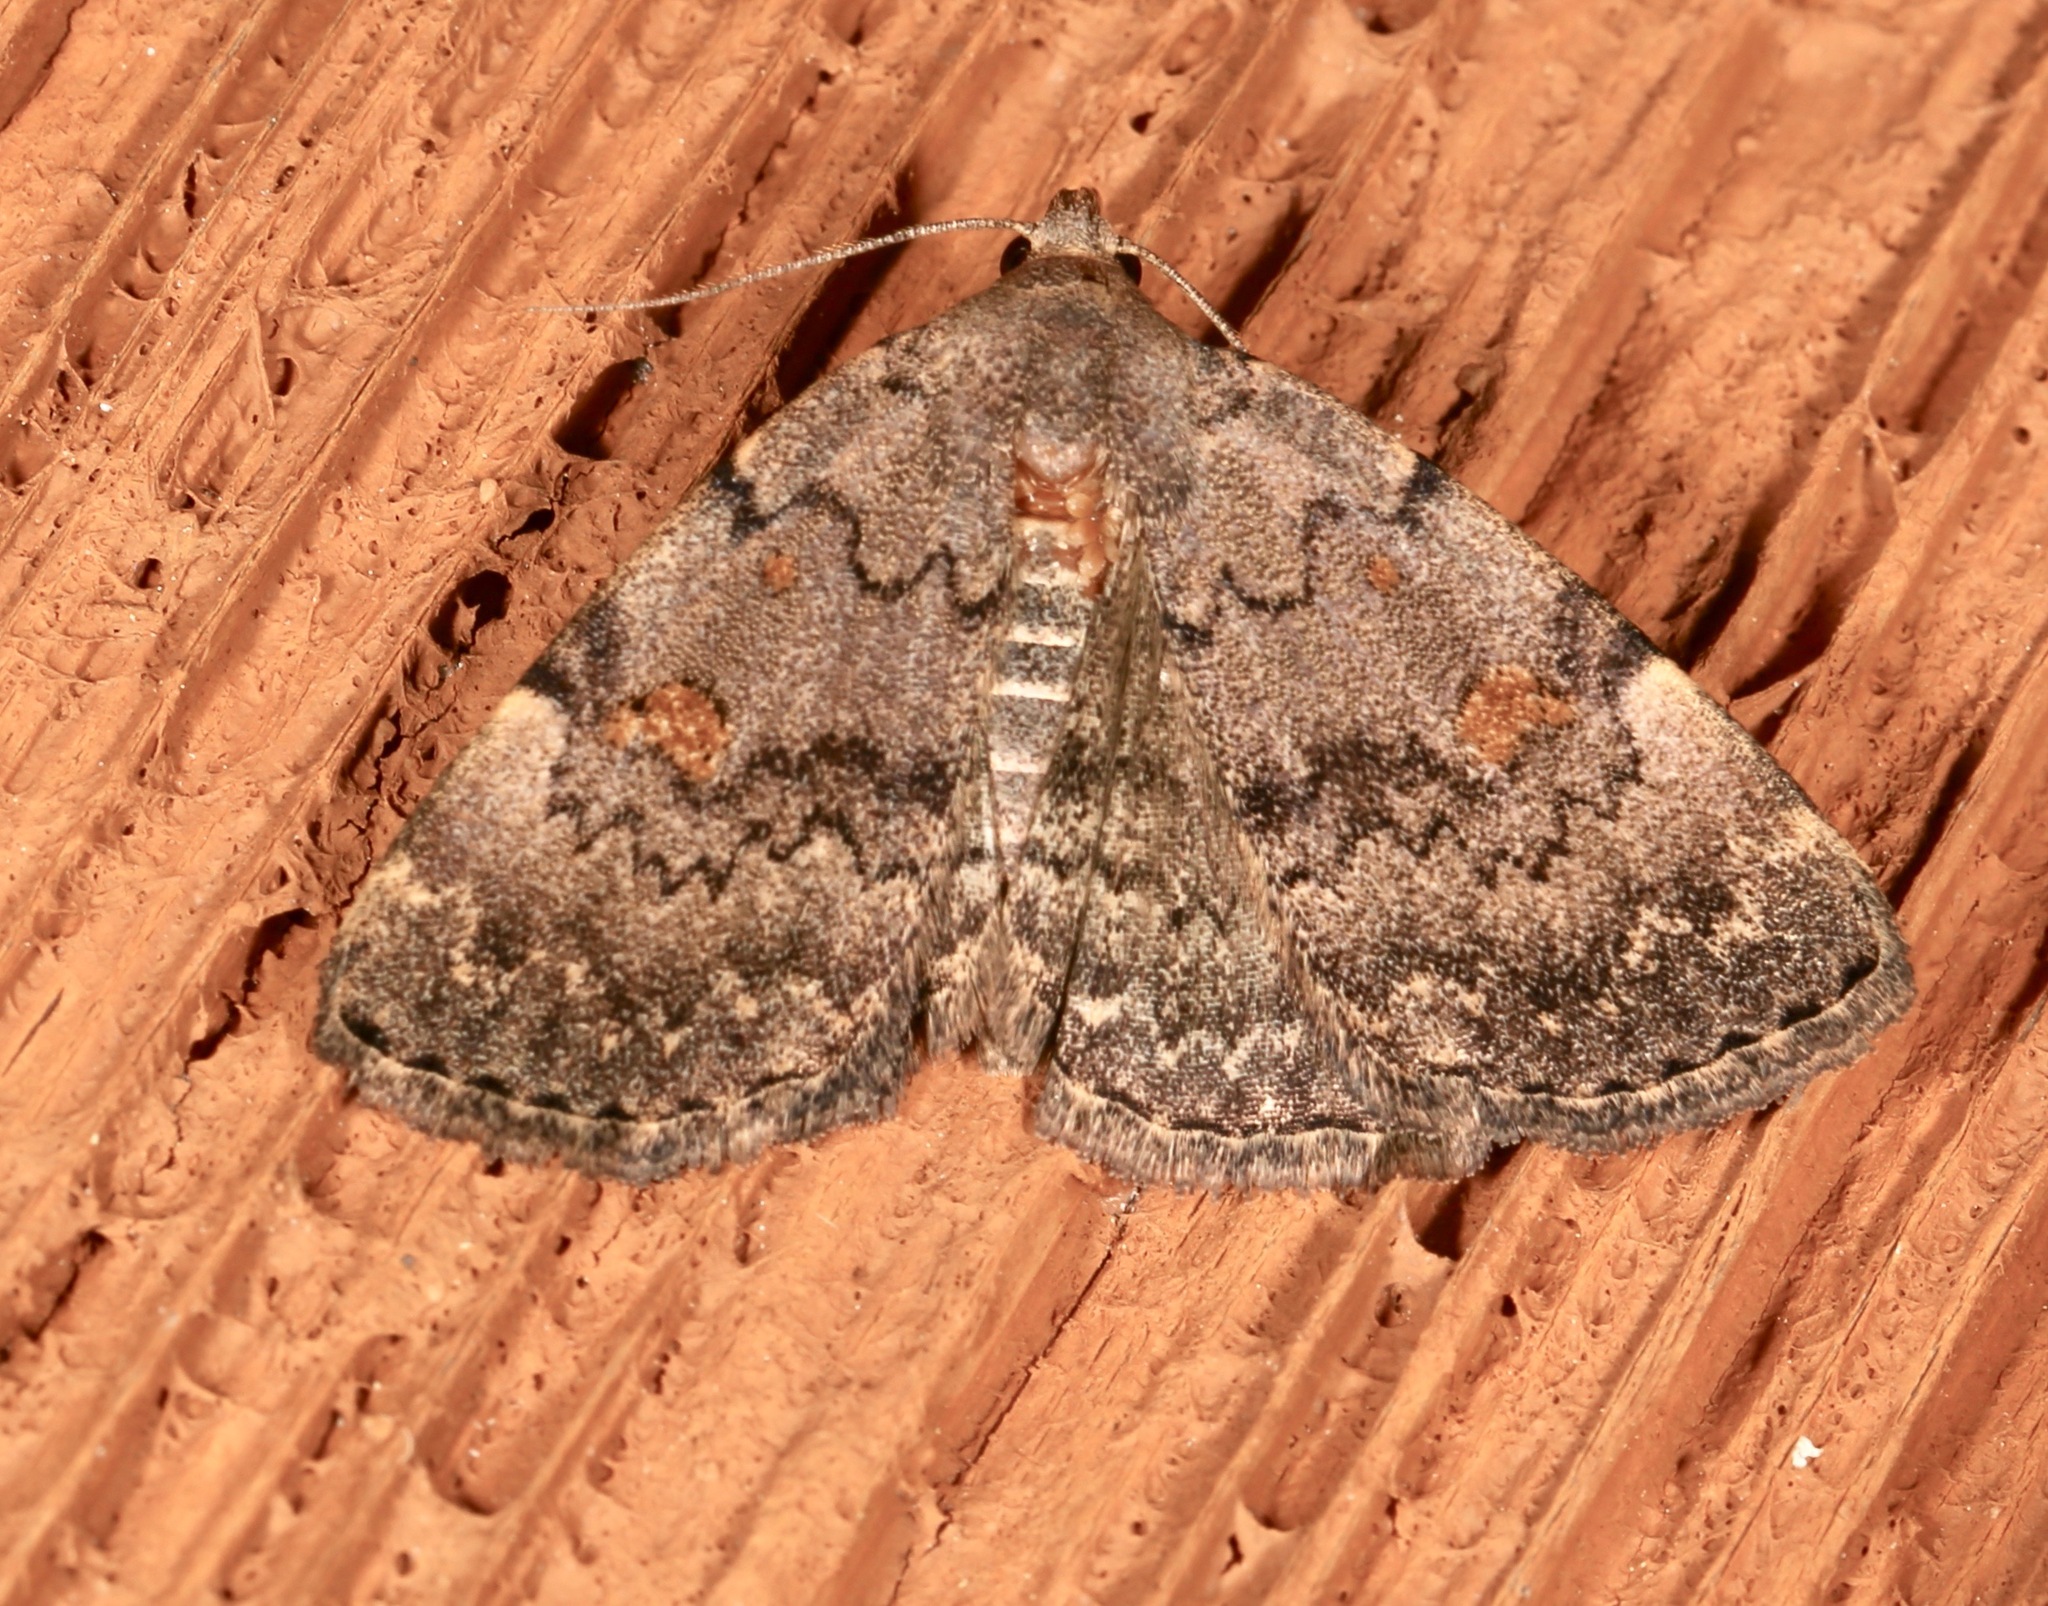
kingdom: Animalia
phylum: Arthropoda
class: Insecta
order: Lepidoptera
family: Erebidae
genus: Idia
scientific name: Idia aemula
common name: Common idia moth
